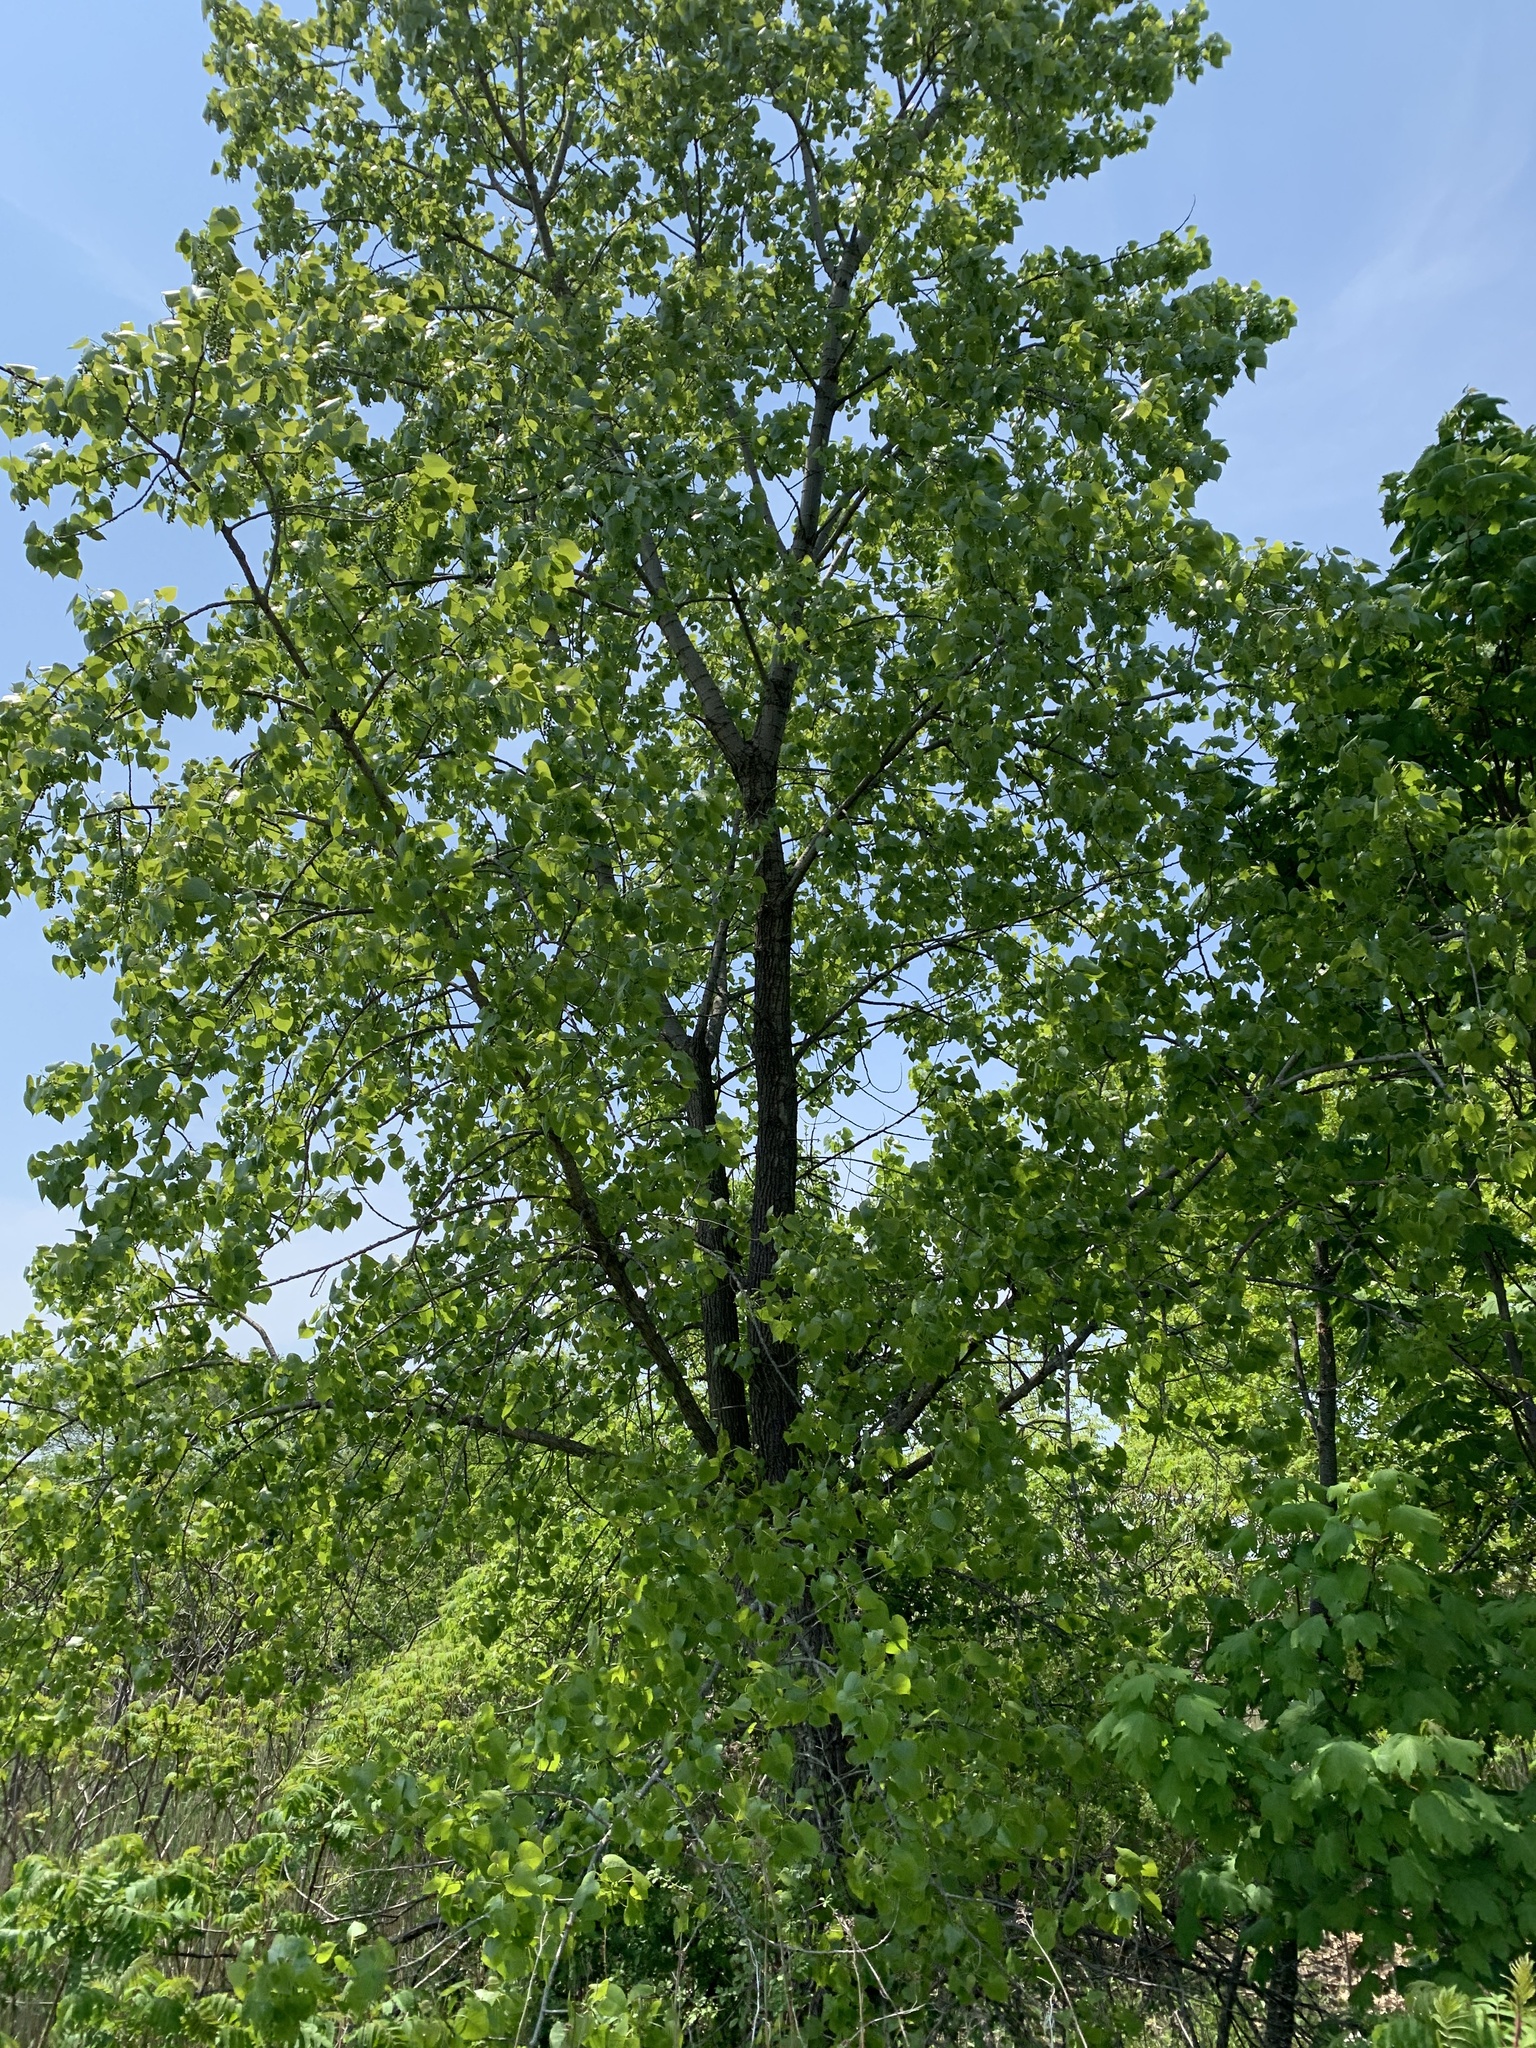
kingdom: Plantae
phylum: Tracheophyta
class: Magnoliopsida
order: Malpighiales
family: Salicaceae
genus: Populus
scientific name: Populus deltoides
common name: Eastern cottonwood
